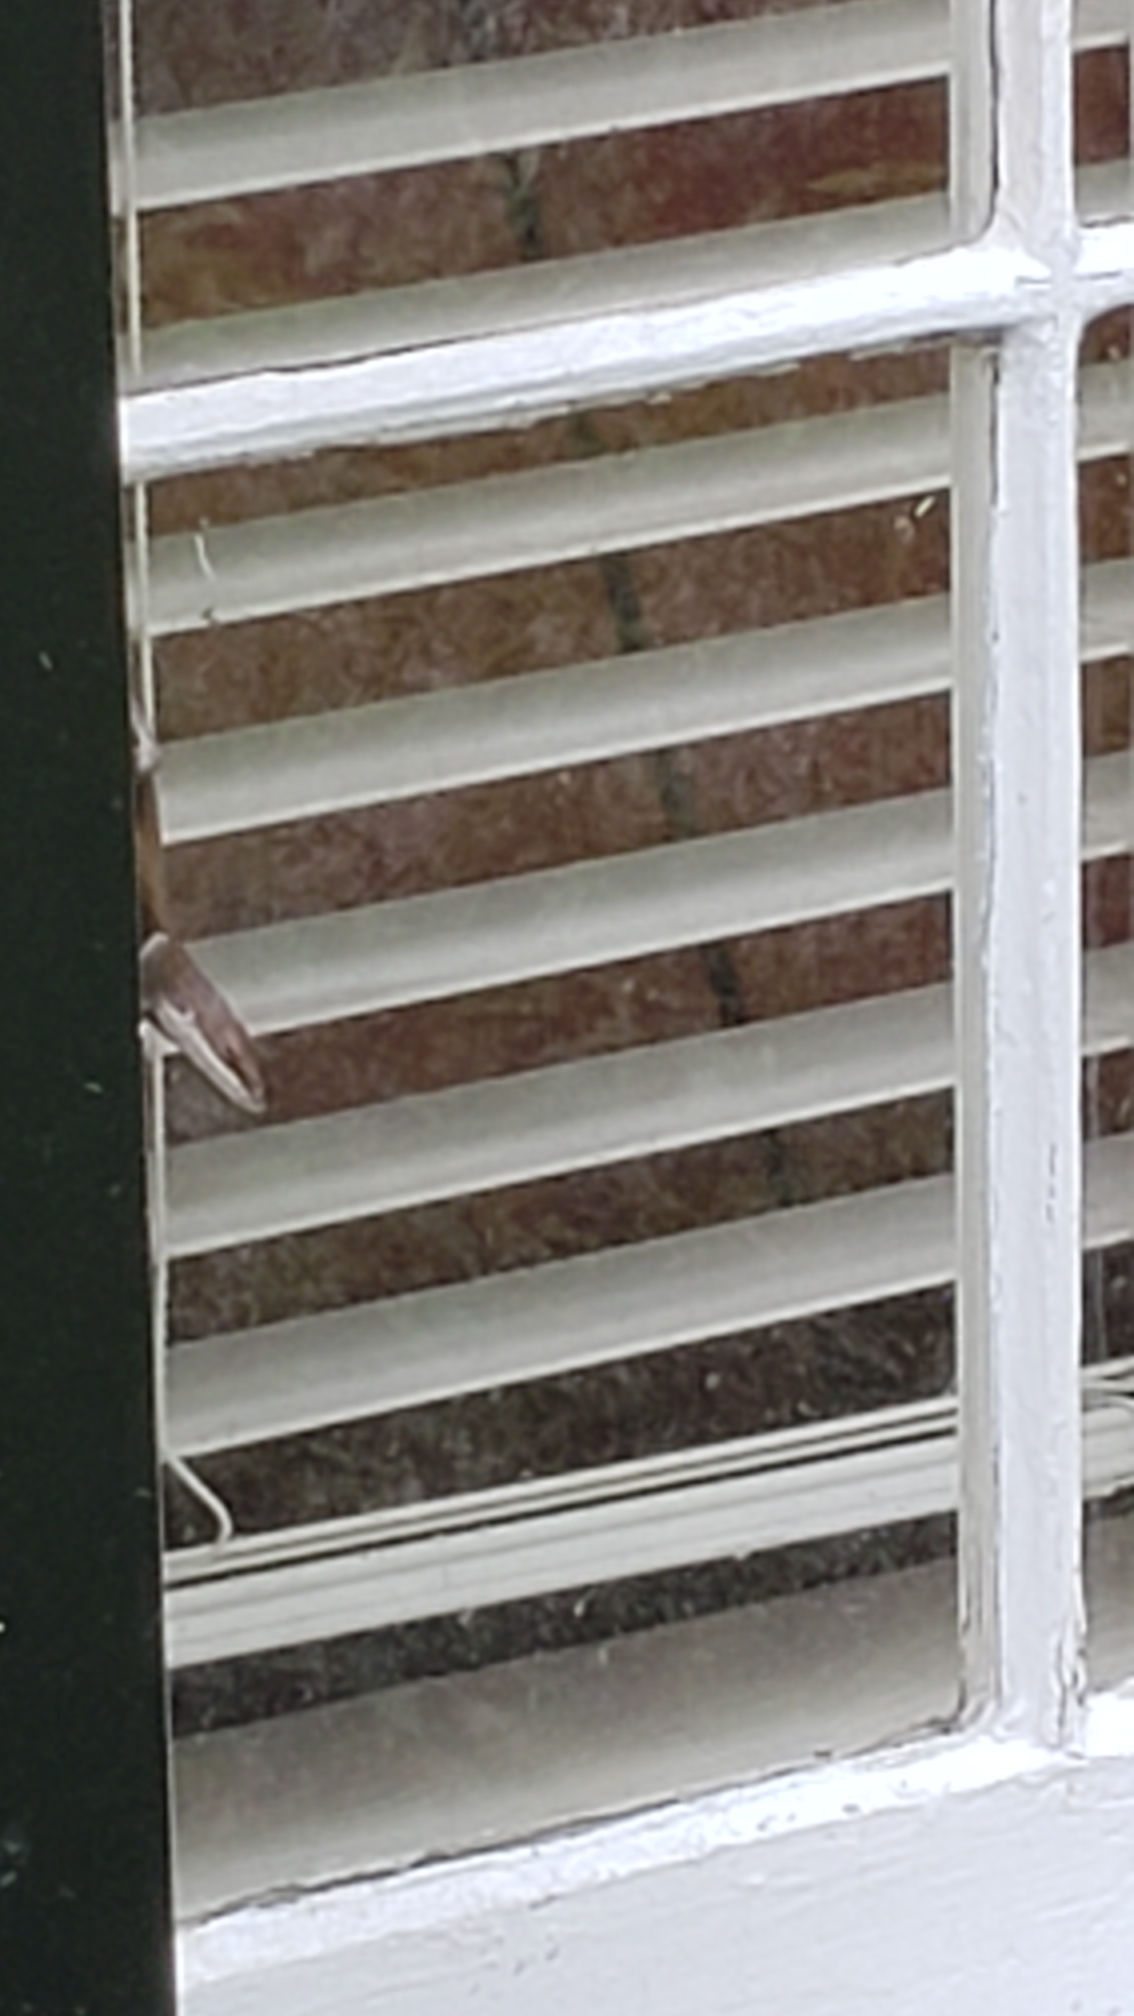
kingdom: Animalia
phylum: Chordata
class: Squamata
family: Dactyloidae
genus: Anolis
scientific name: Anolis carolinensis
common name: Green anole
